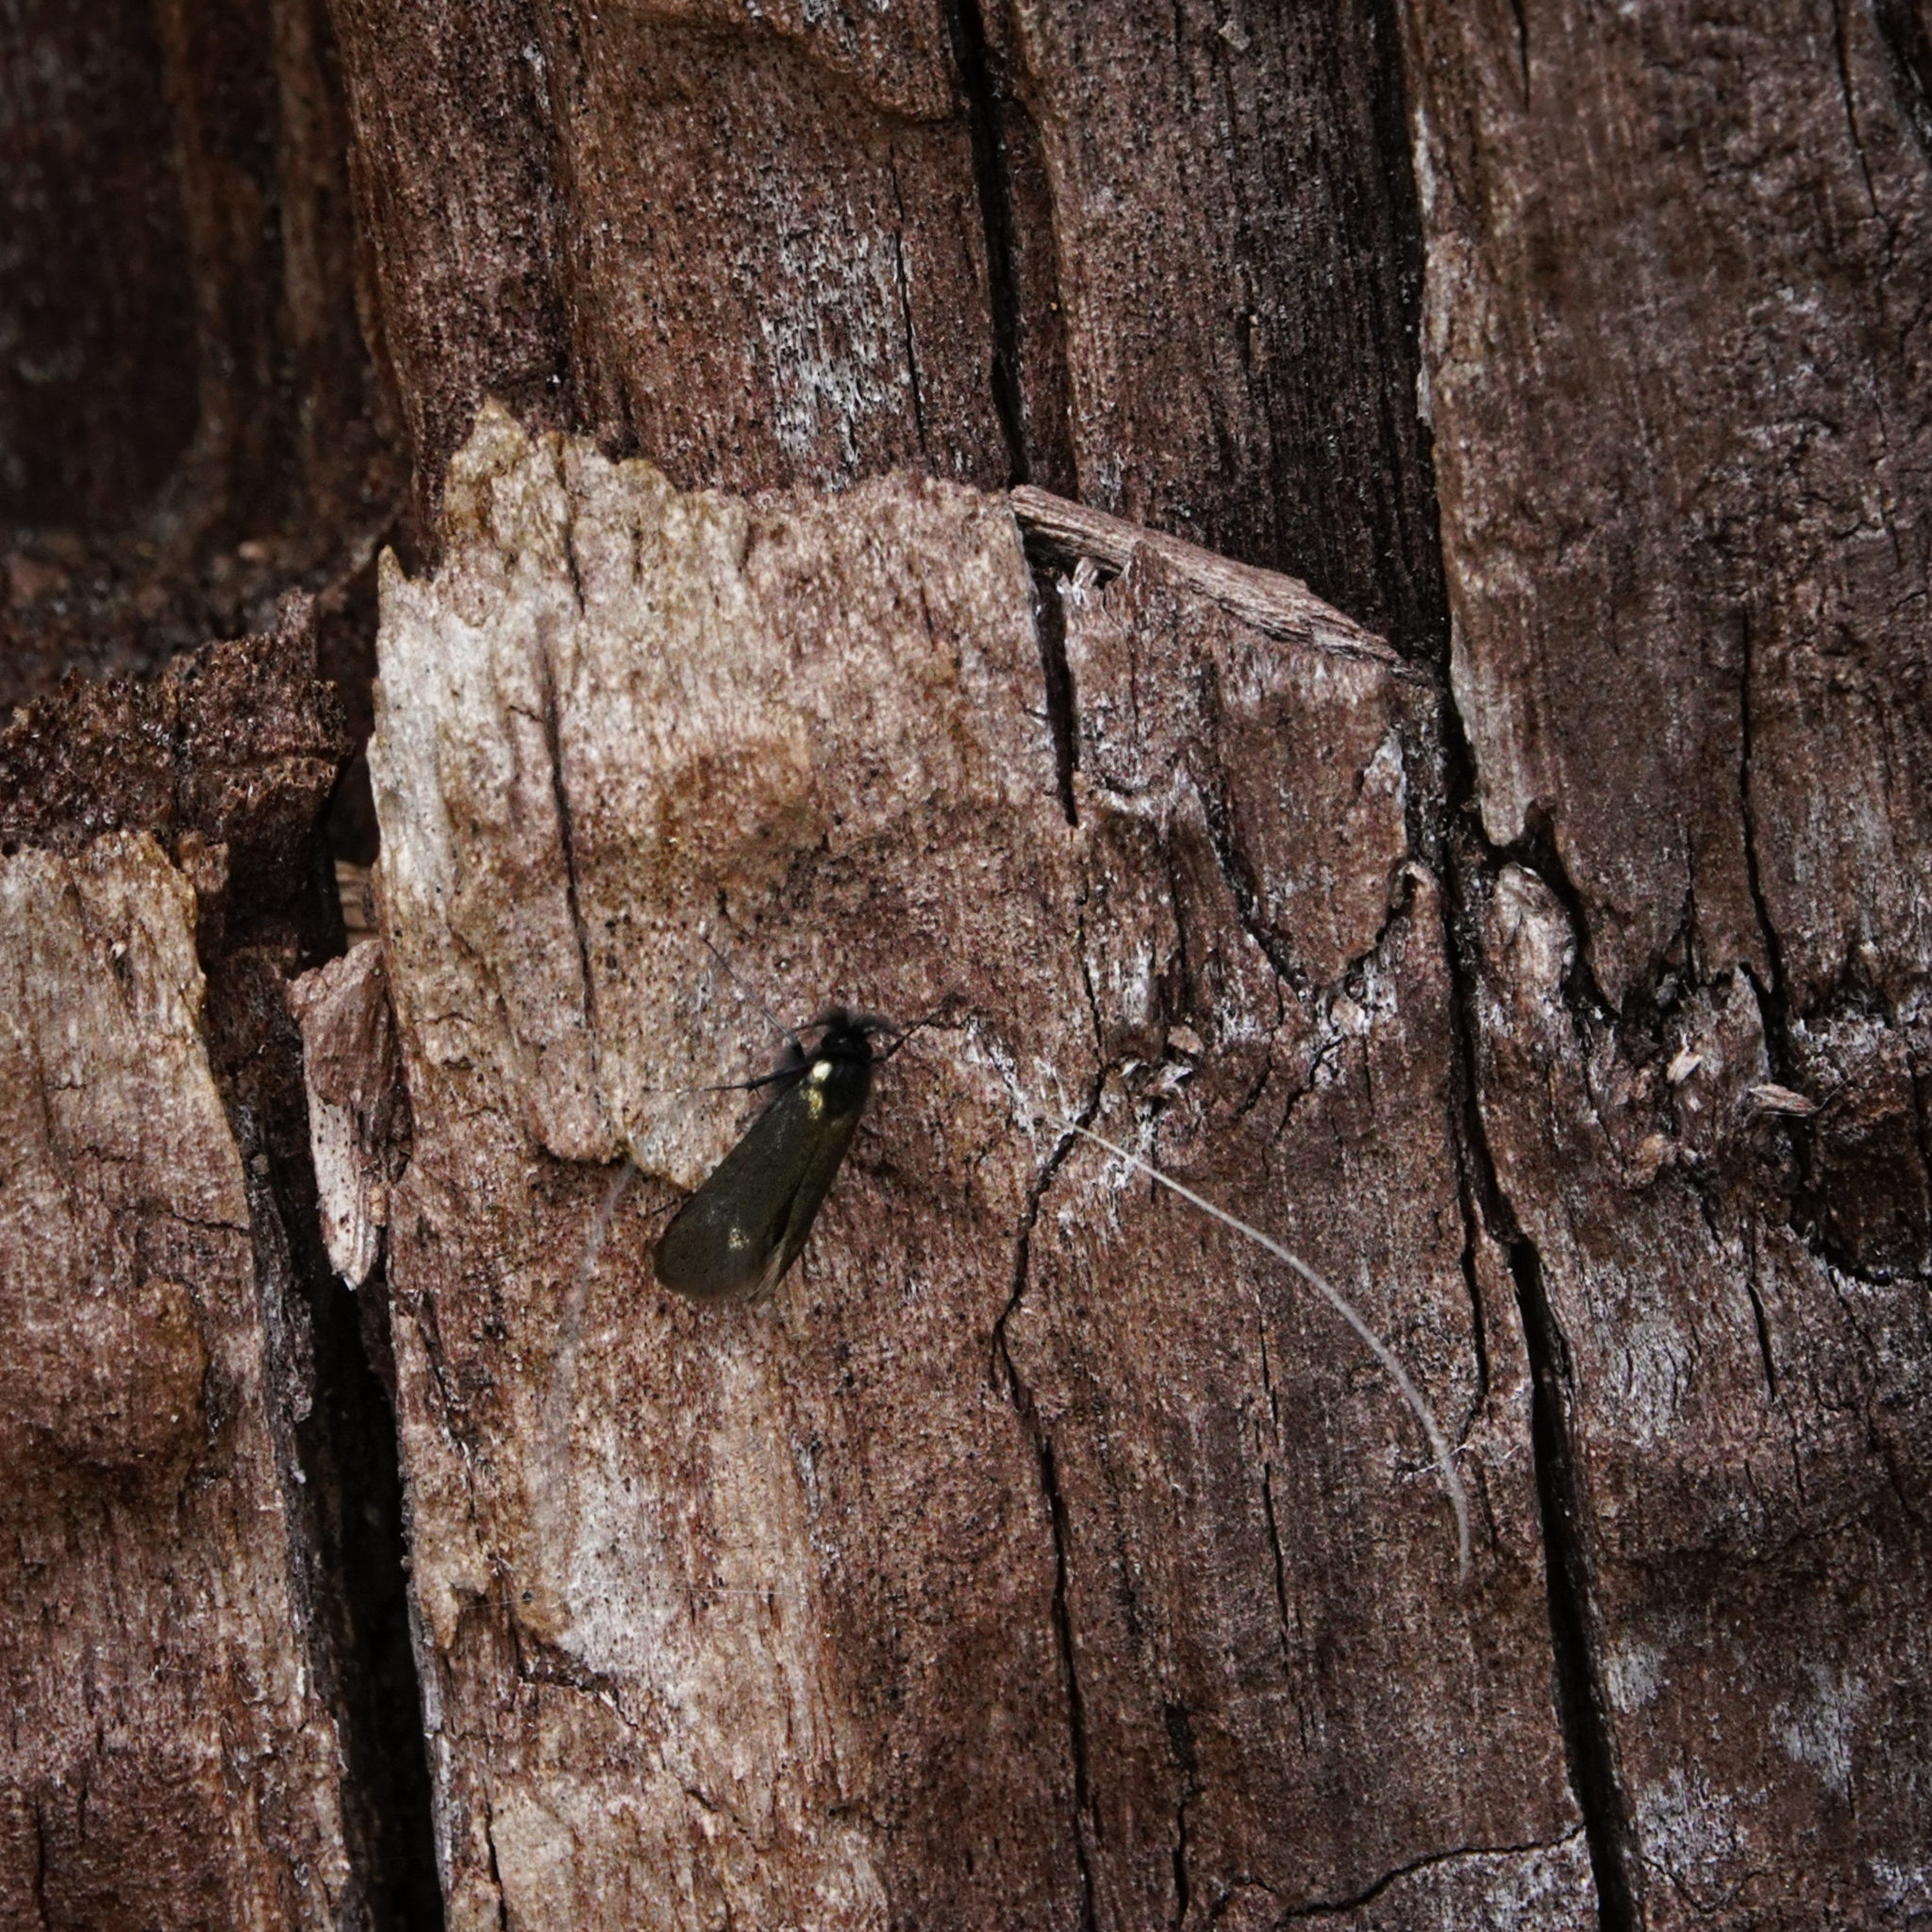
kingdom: Animalia
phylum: Arthropoda
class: Insecta
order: Lepidoptera
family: Adelidae
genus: Adela
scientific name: Adela viridella
